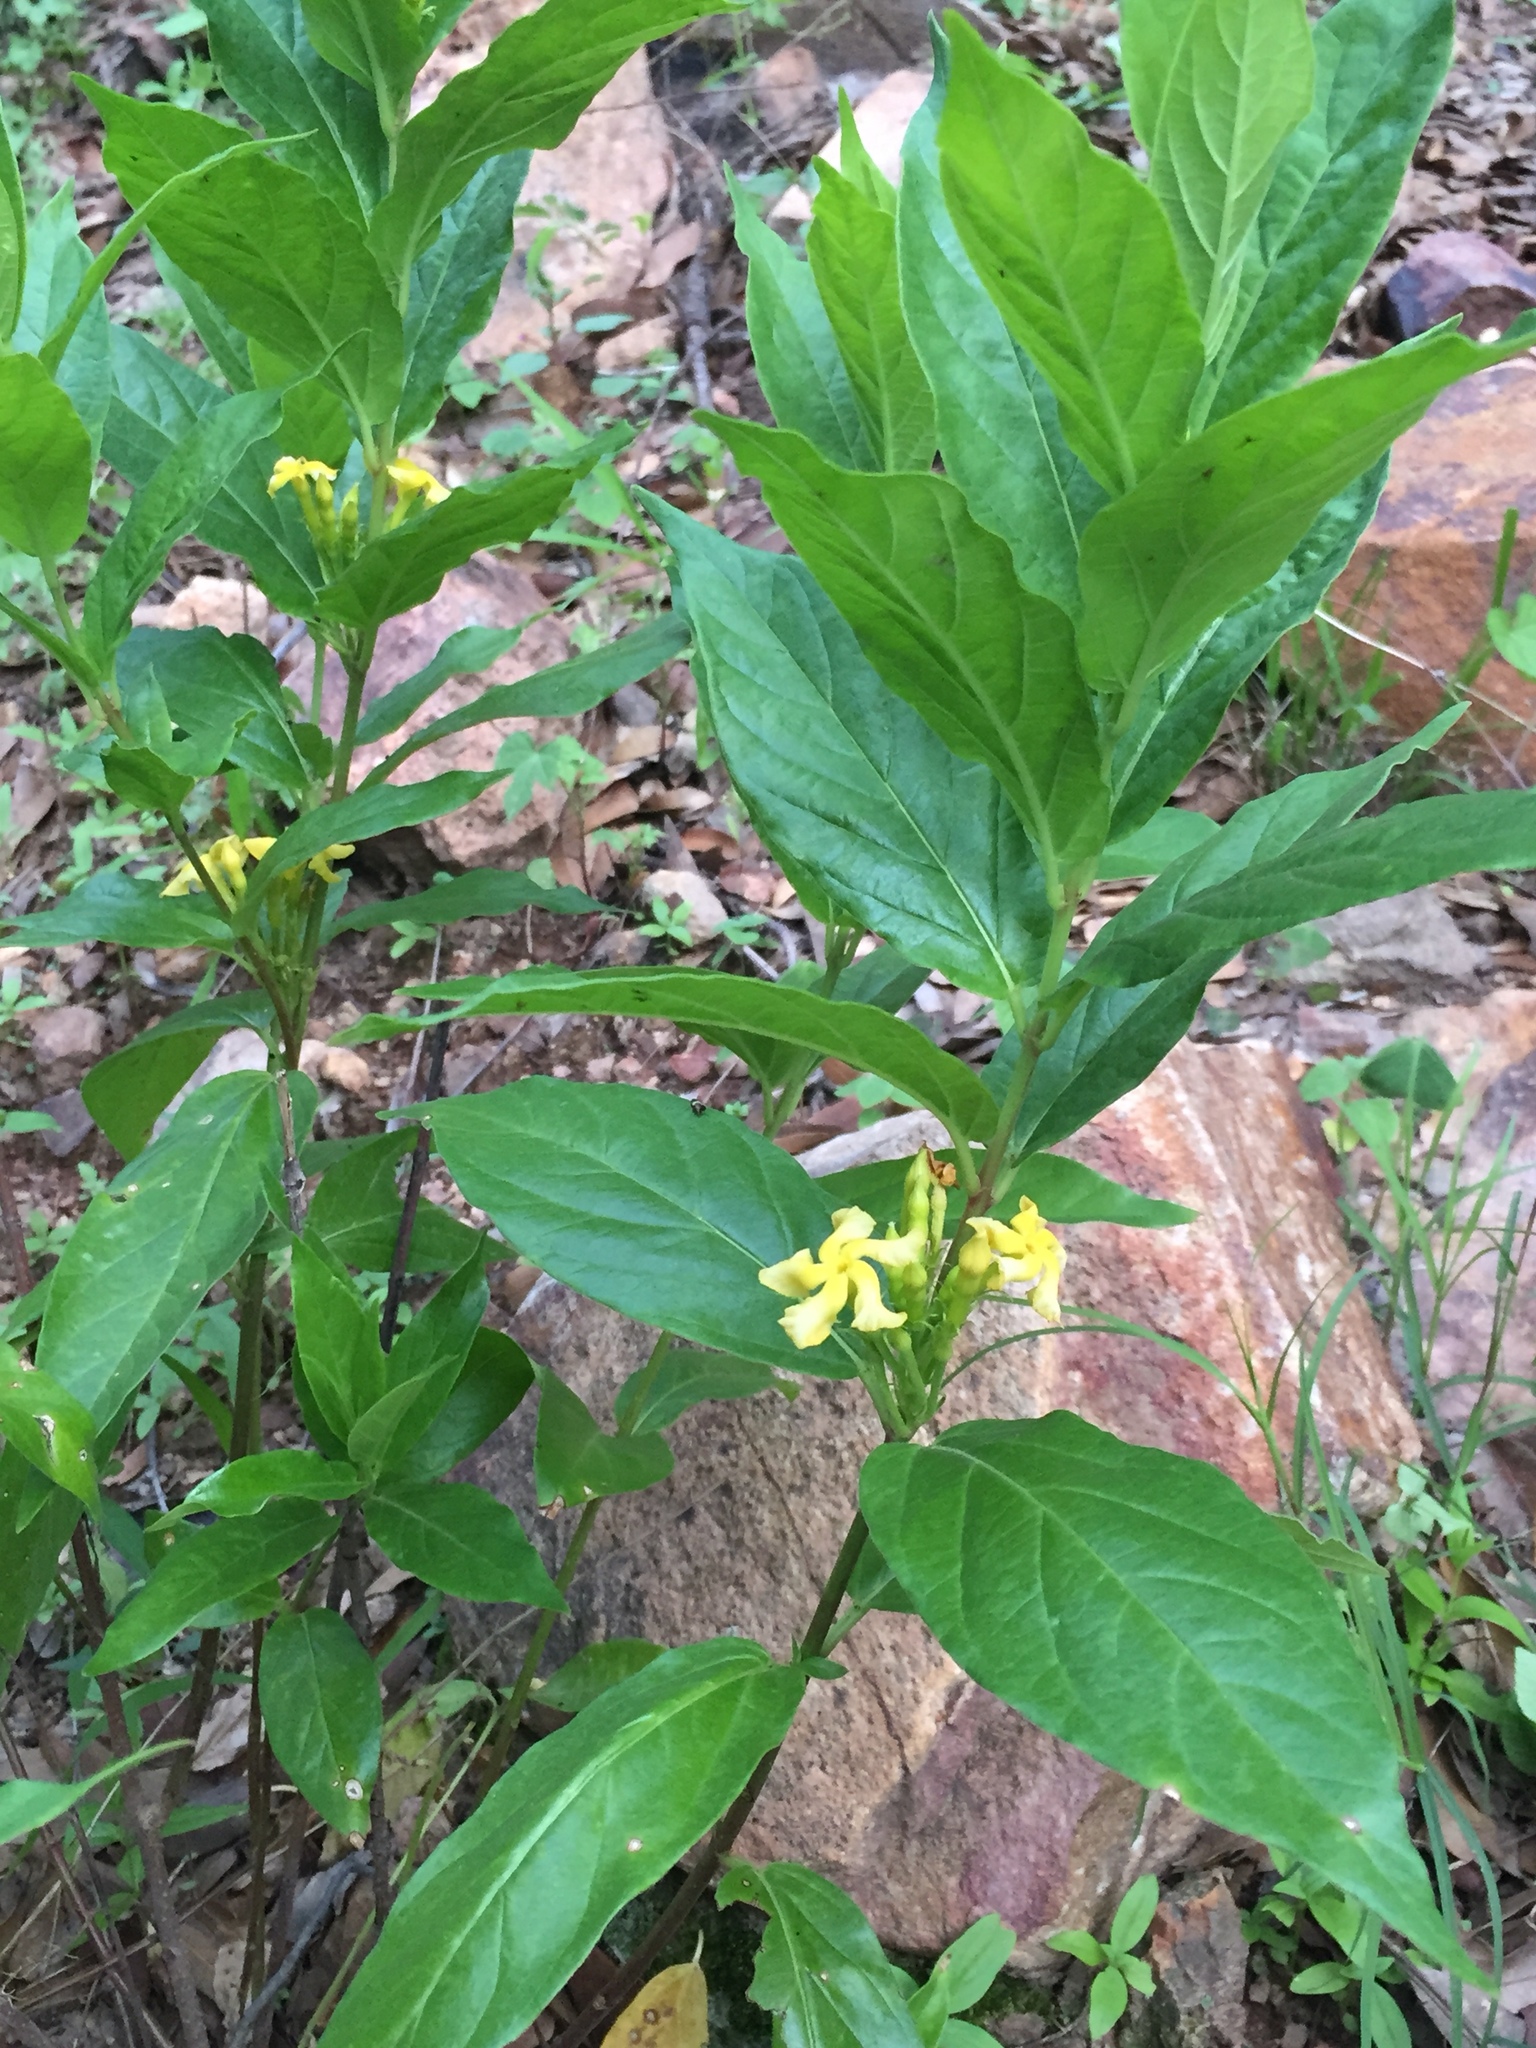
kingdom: Plantae
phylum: Tracheophyta
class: Magnoliopsida
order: Gentianales
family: Apocynaceae
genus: Mandevilla
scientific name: Mandevilla foliosa
